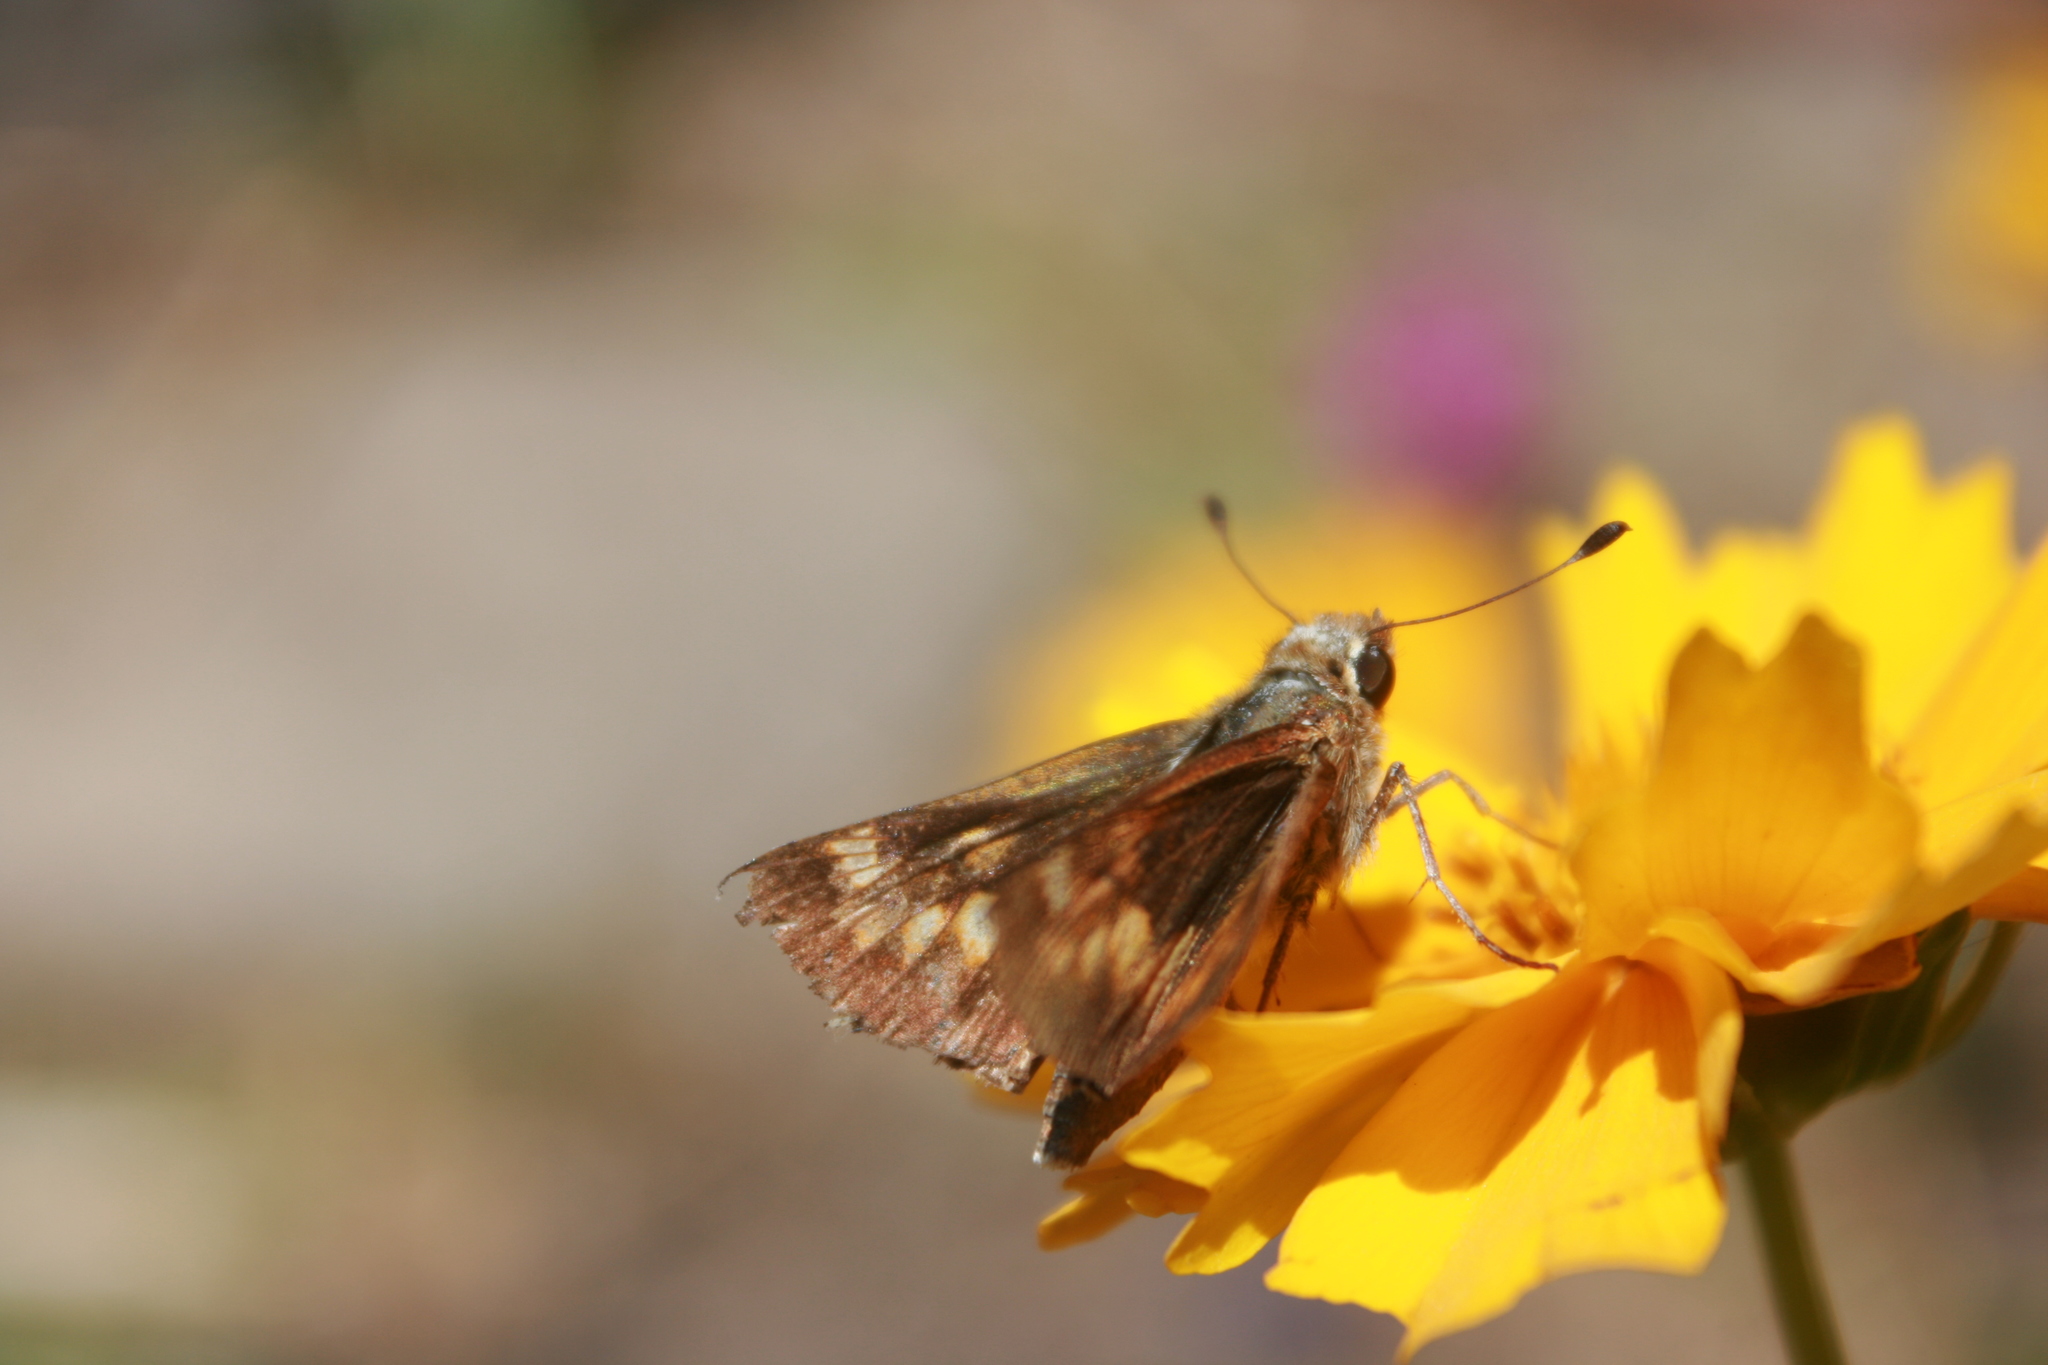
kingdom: Animalia
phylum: Arthropoda
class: Insecta
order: Lepidoptera
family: Hesperiidae
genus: Lon
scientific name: Lon melane
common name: Umber skipper
